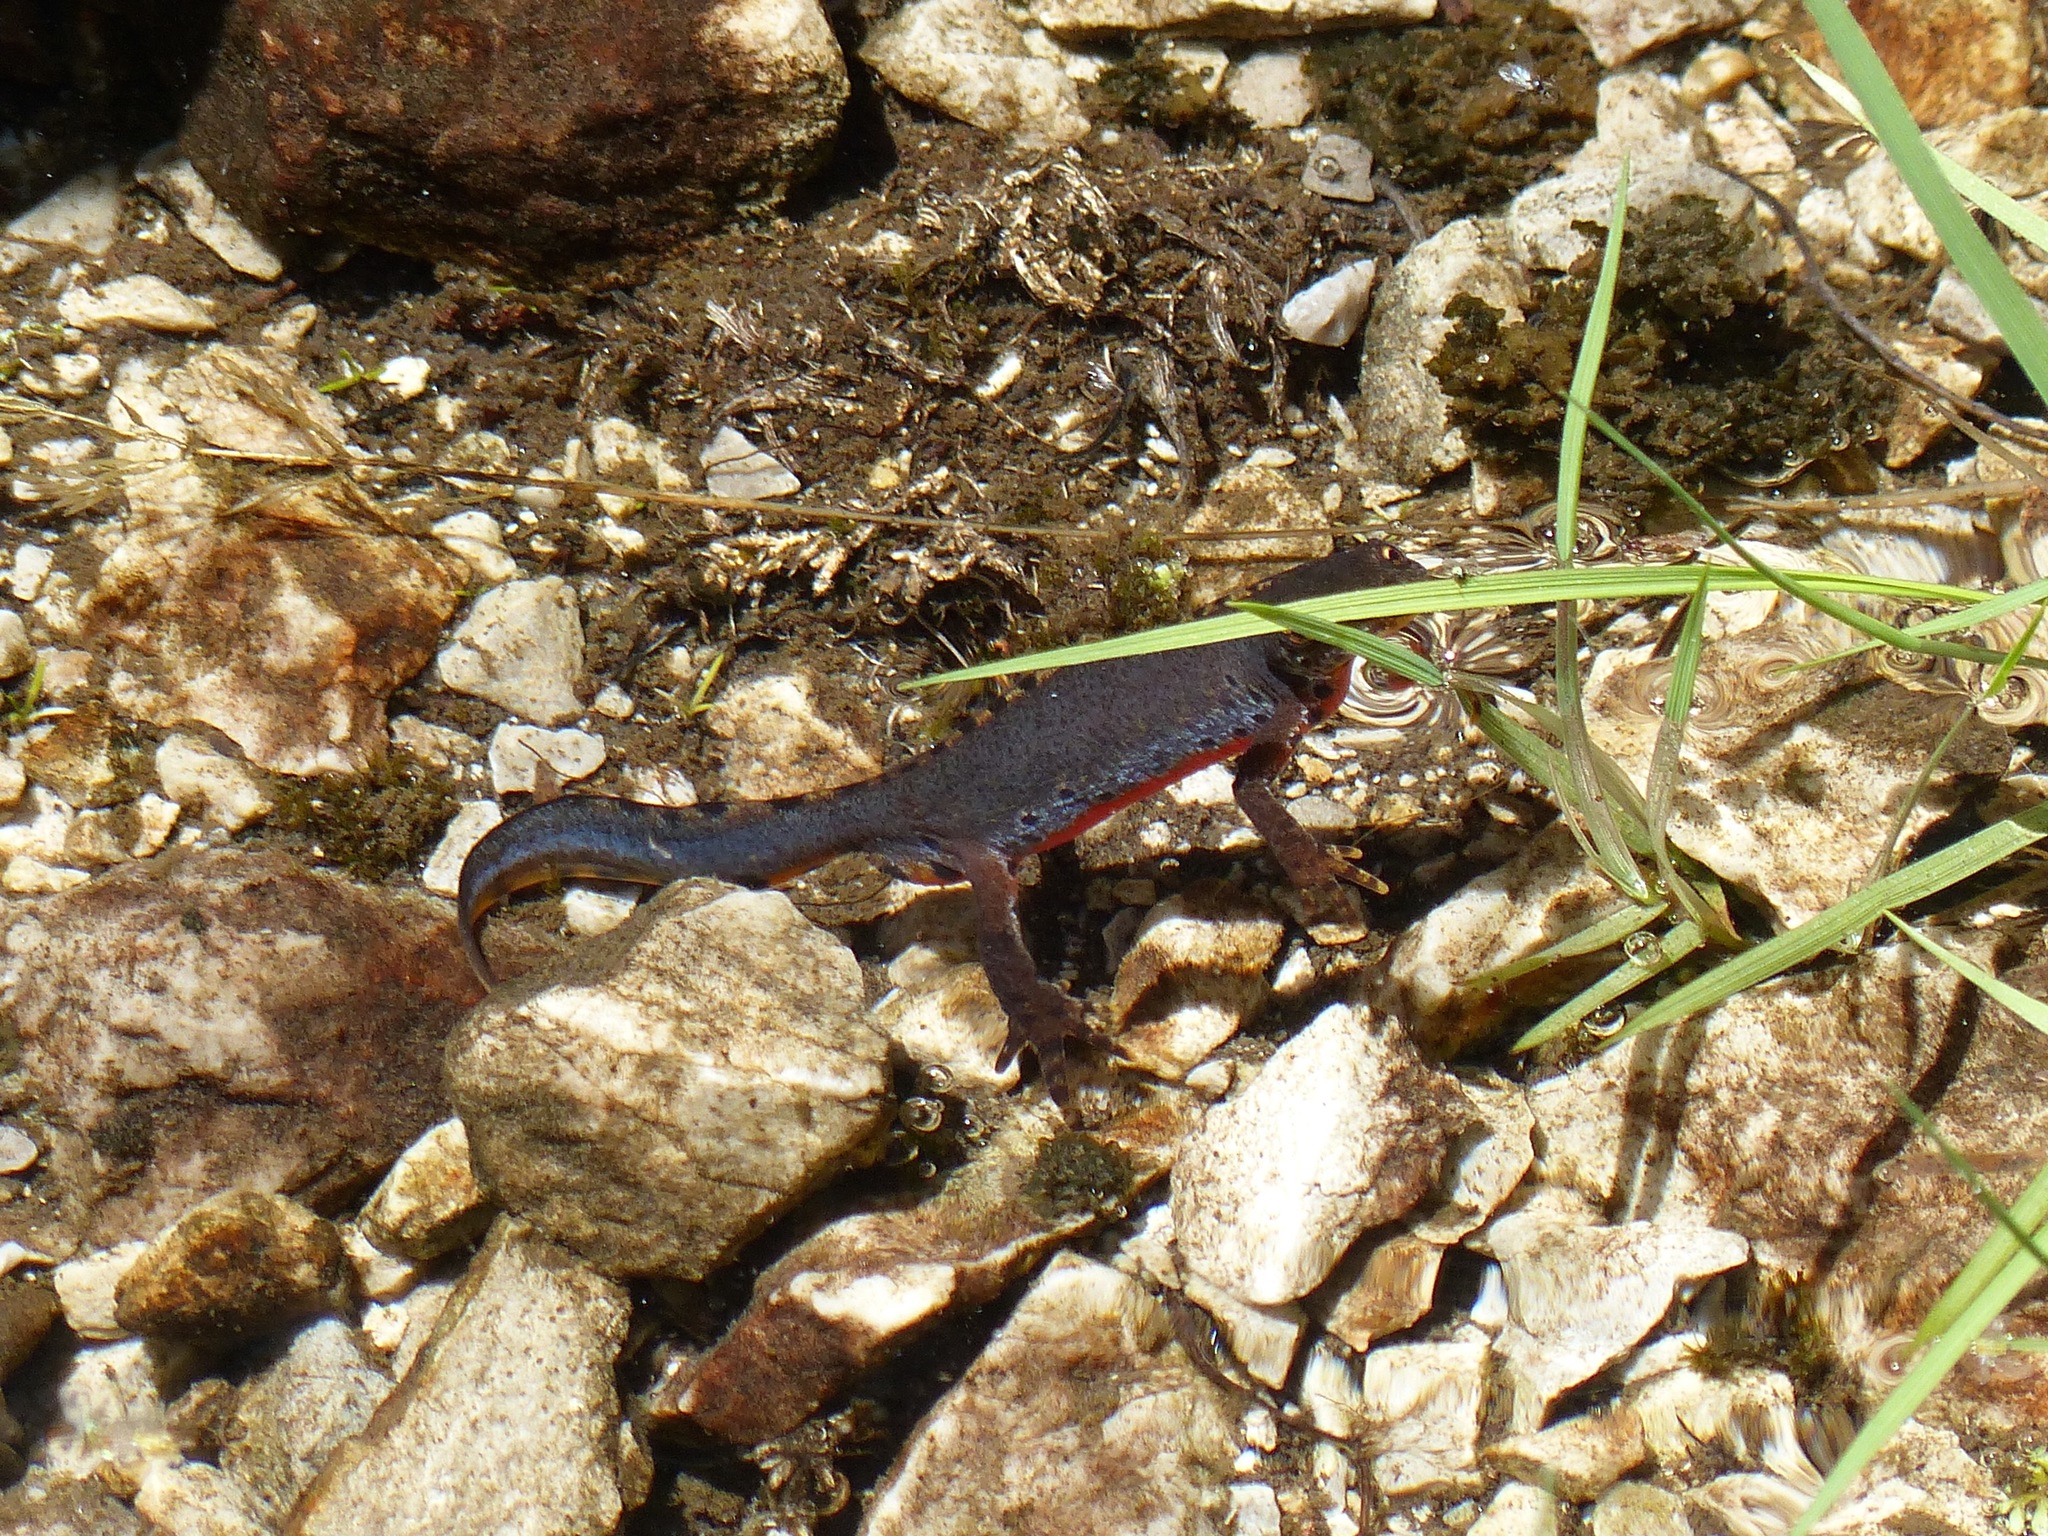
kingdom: Animalia
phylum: Chordata
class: Amphibia
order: Caudata
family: Salamandridae
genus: Ichthyosaura
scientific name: Ichthyosaura alpestris
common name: Alpine newt
